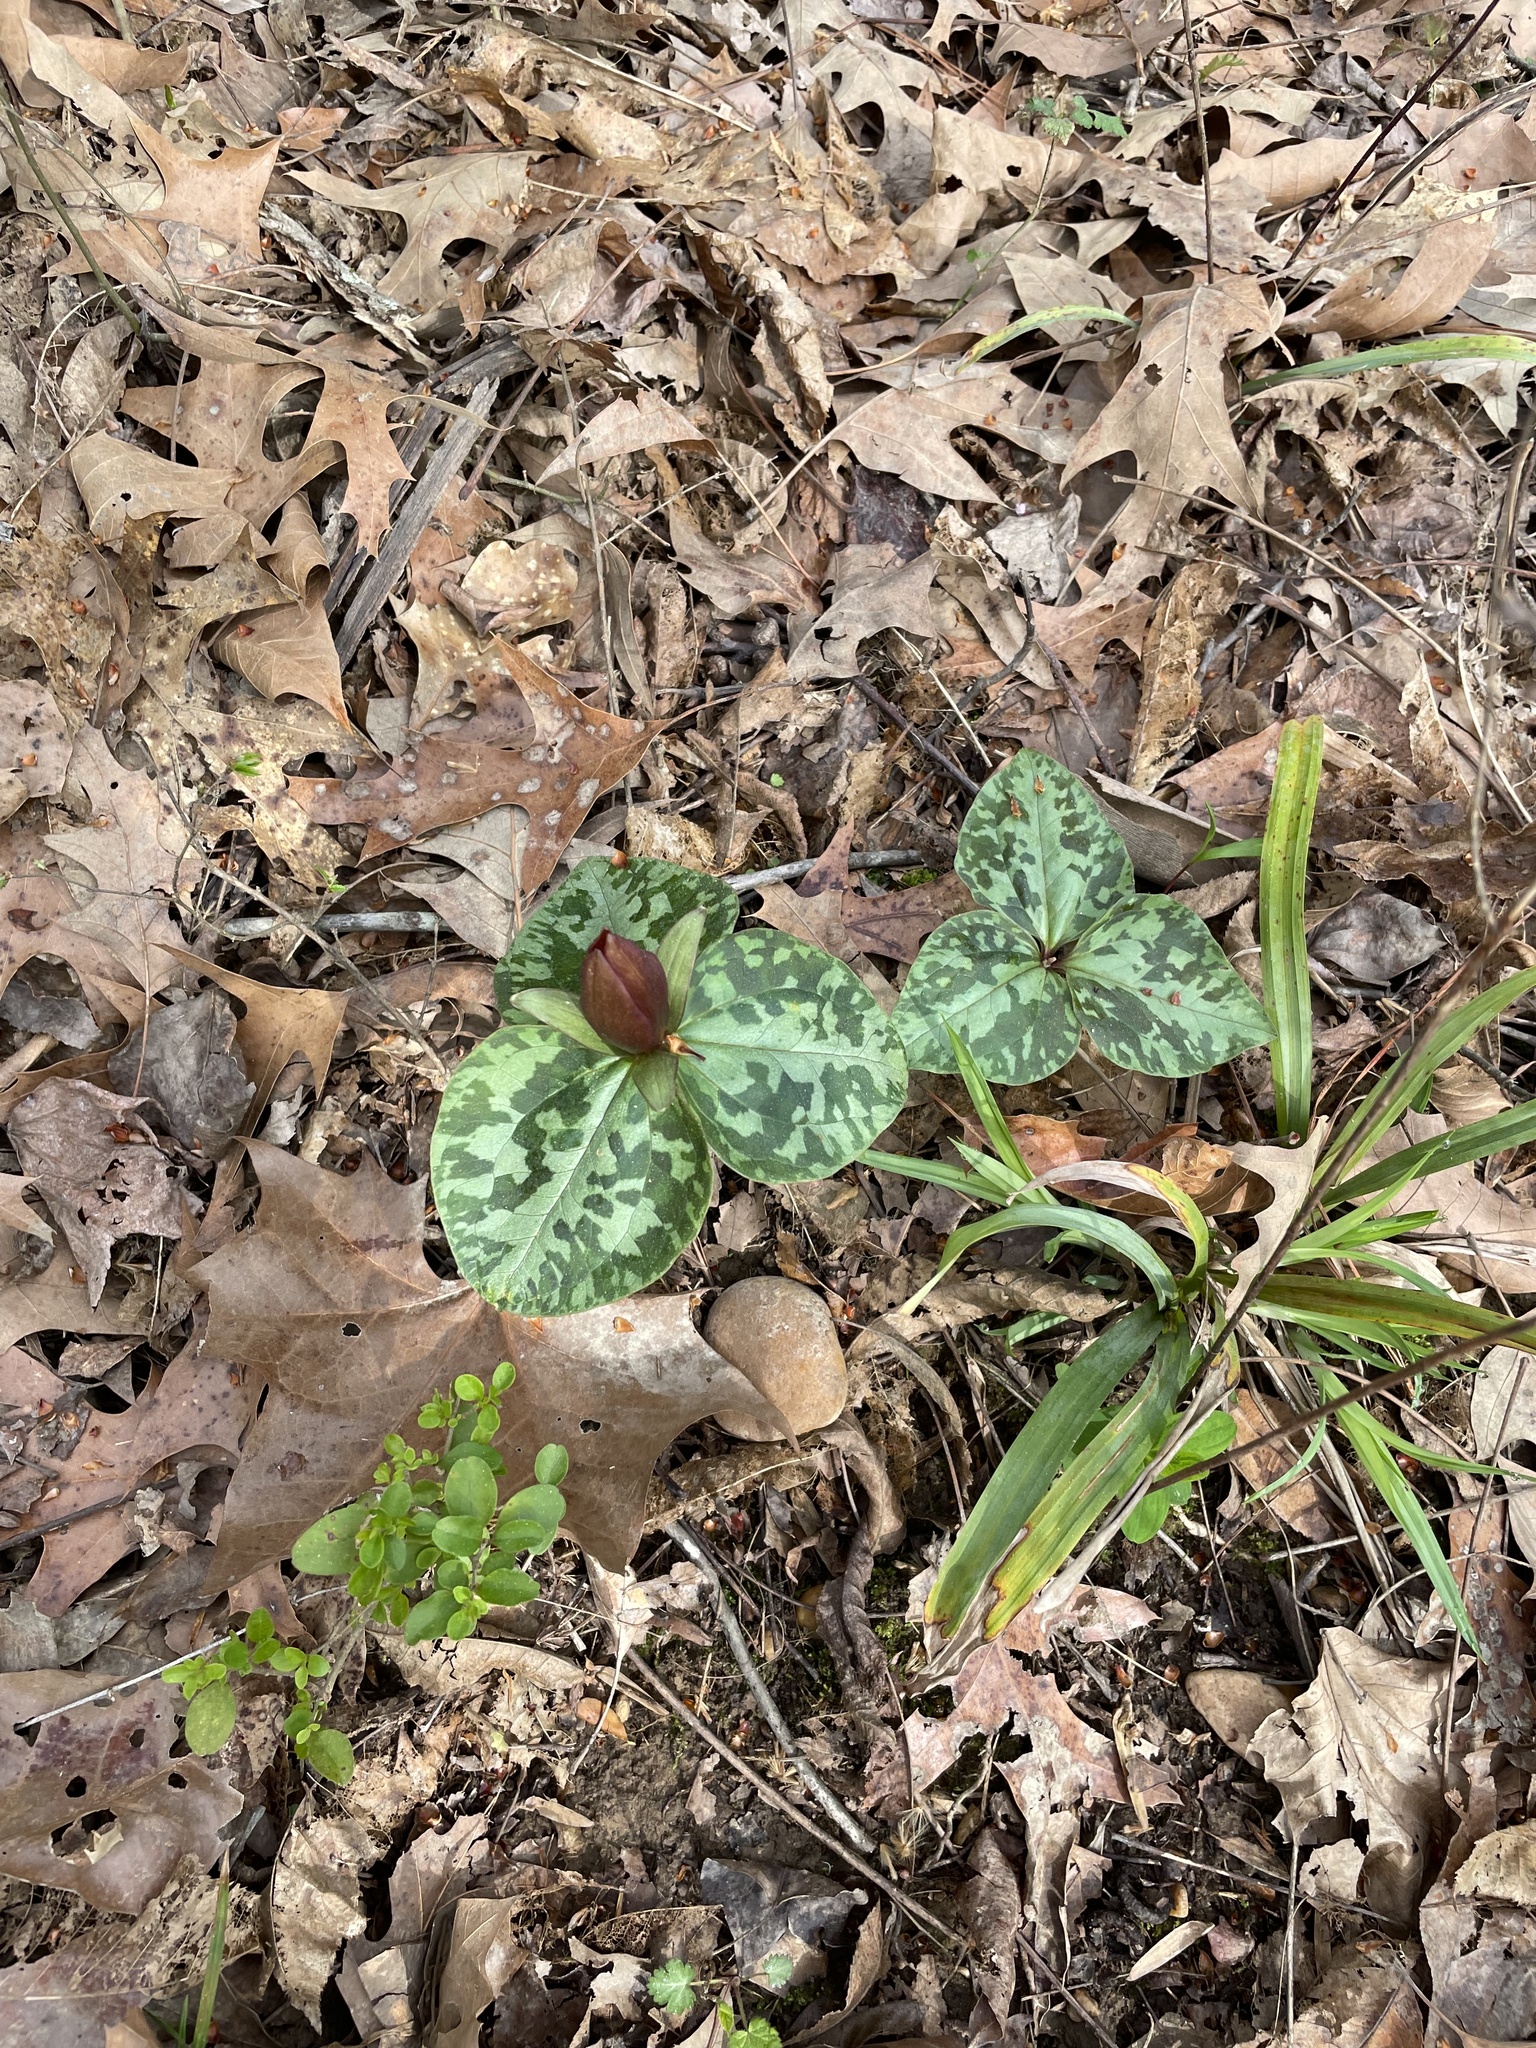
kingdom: Plantae
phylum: Tracheophyta
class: Liliopsida
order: Liliales
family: Melanthiaceae
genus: Trillium
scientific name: Trillium cuneatum
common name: Cuneate trillium
